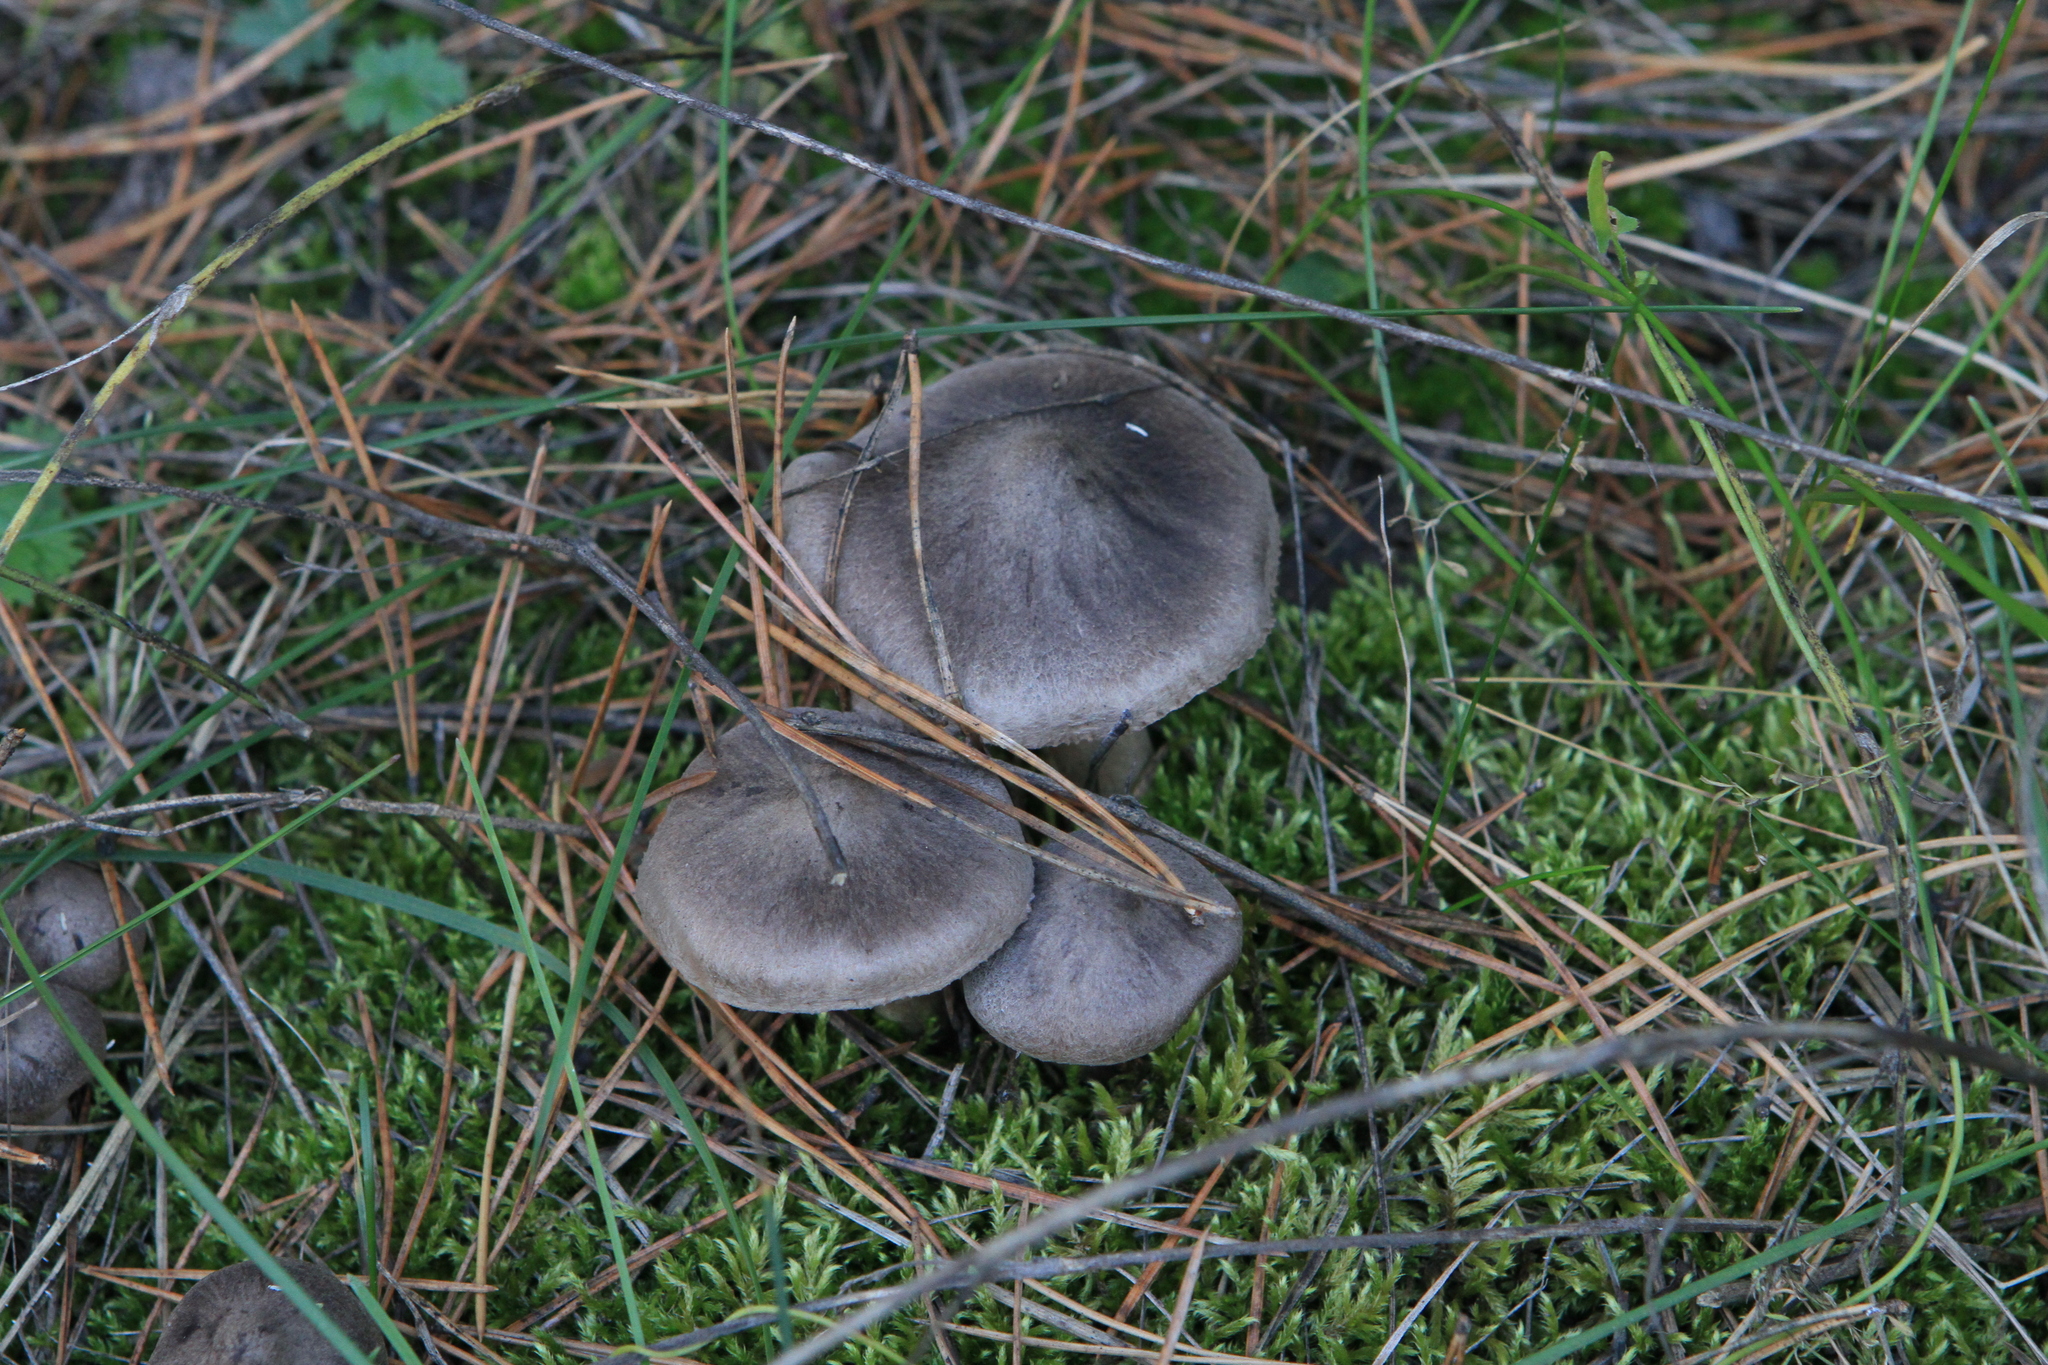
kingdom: Fungi
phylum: Basidiomycota
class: Agaricomycetes
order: Agaricales
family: Tricholomataceae
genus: Tricholoma
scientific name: Tricholoma terreum
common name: Grey knight
